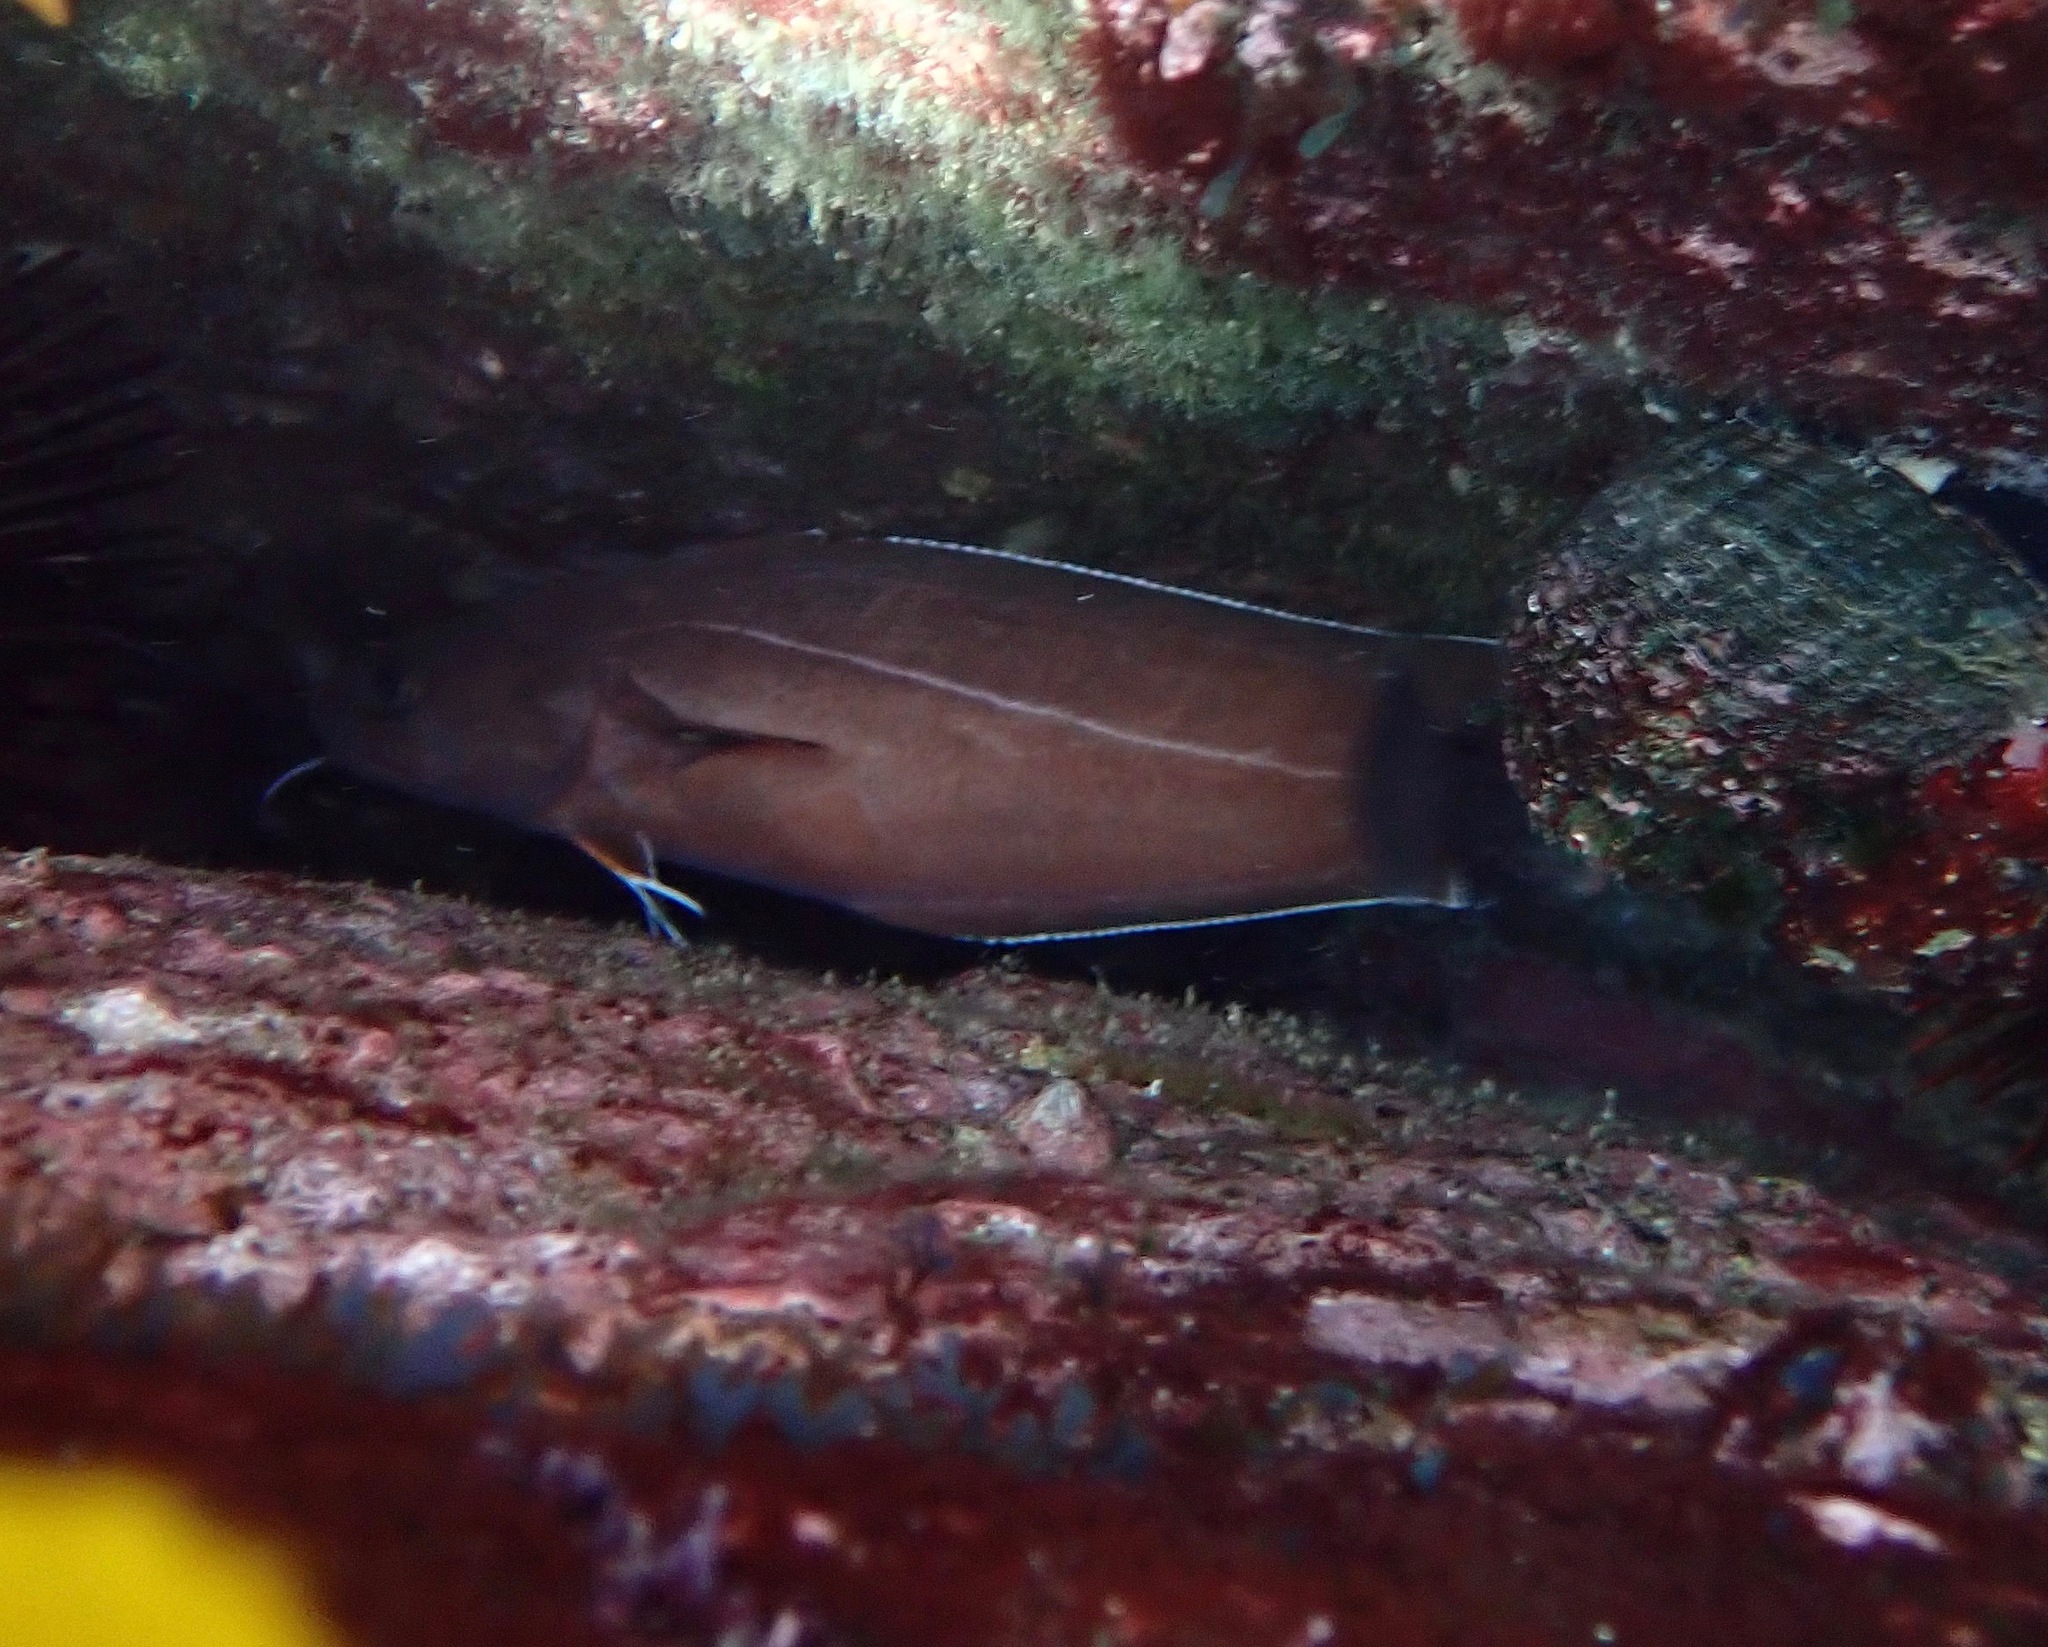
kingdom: Animalia
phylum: Chordata
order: Gadiformes
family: Moridae
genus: Lotella
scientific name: Lotella rhacina
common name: Rock cod
